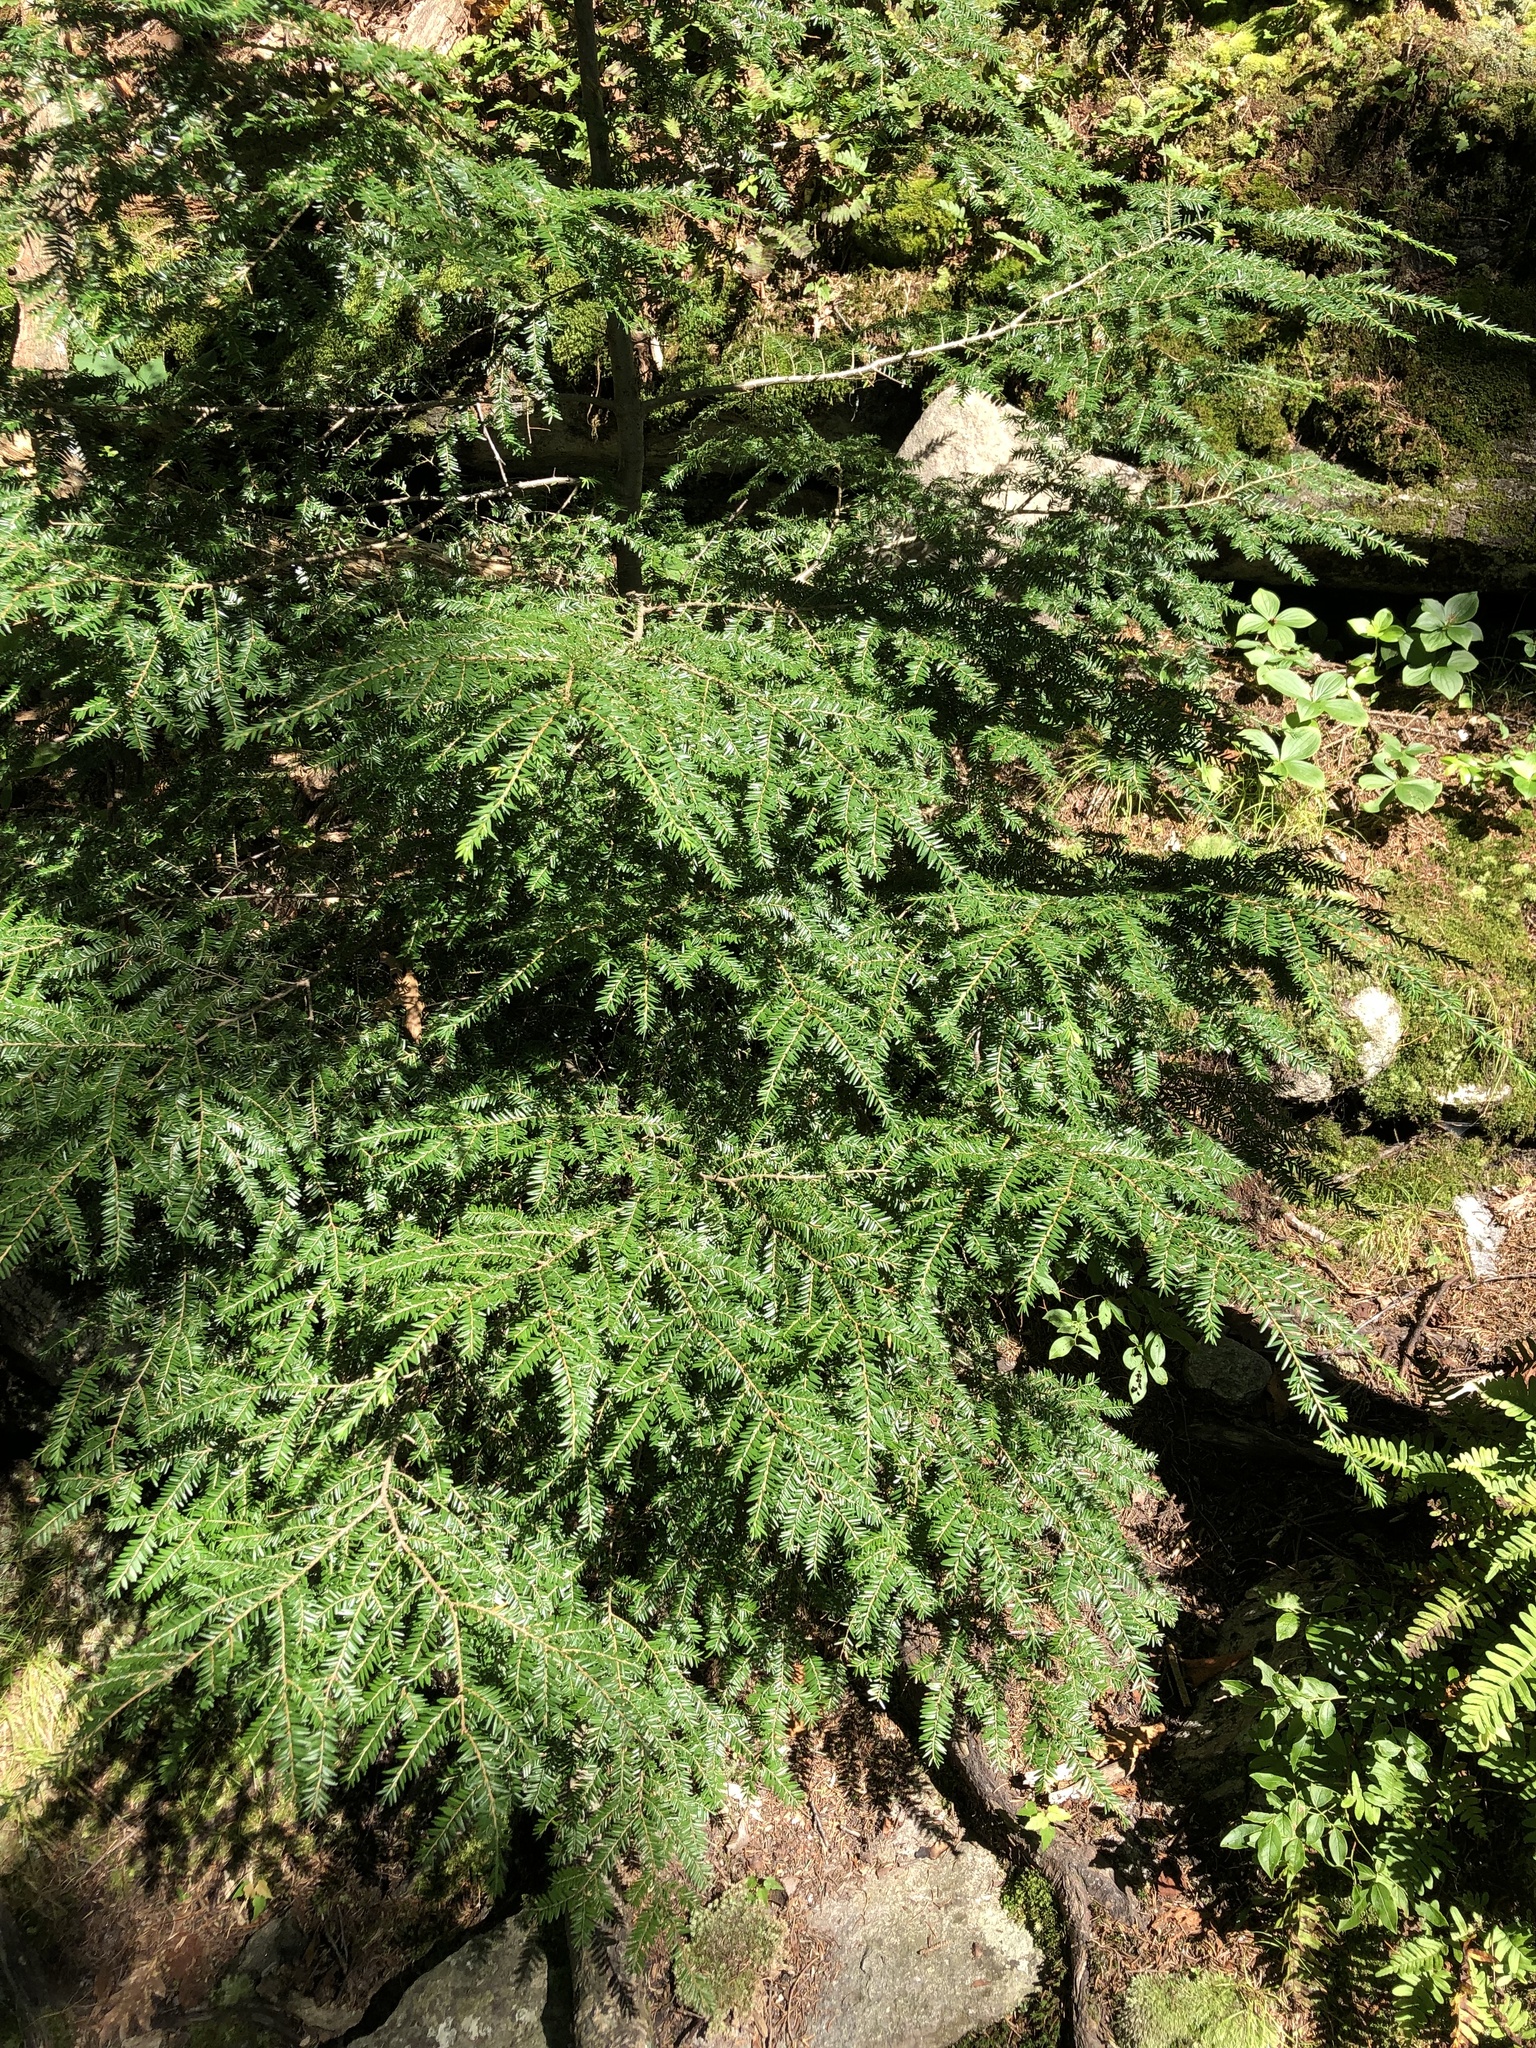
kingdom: Plantae
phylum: Tracheophyta
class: Pinopsida
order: Pinales
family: Pinaceae
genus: Tsuga
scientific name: Tsuga canadensis
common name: Eastern hemlock
